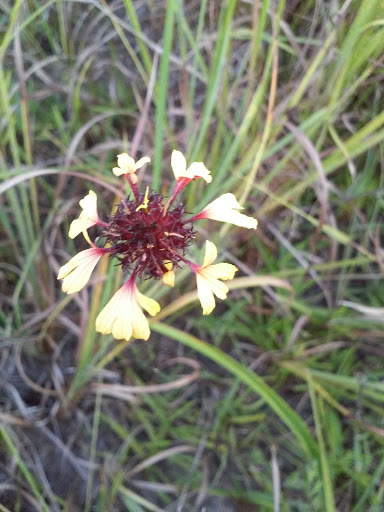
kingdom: Plantae
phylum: Tracheophyta
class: Magnoliopsida
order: Asterales
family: Asteraceae
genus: Gaillardia
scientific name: Gaillardia aestivalis
